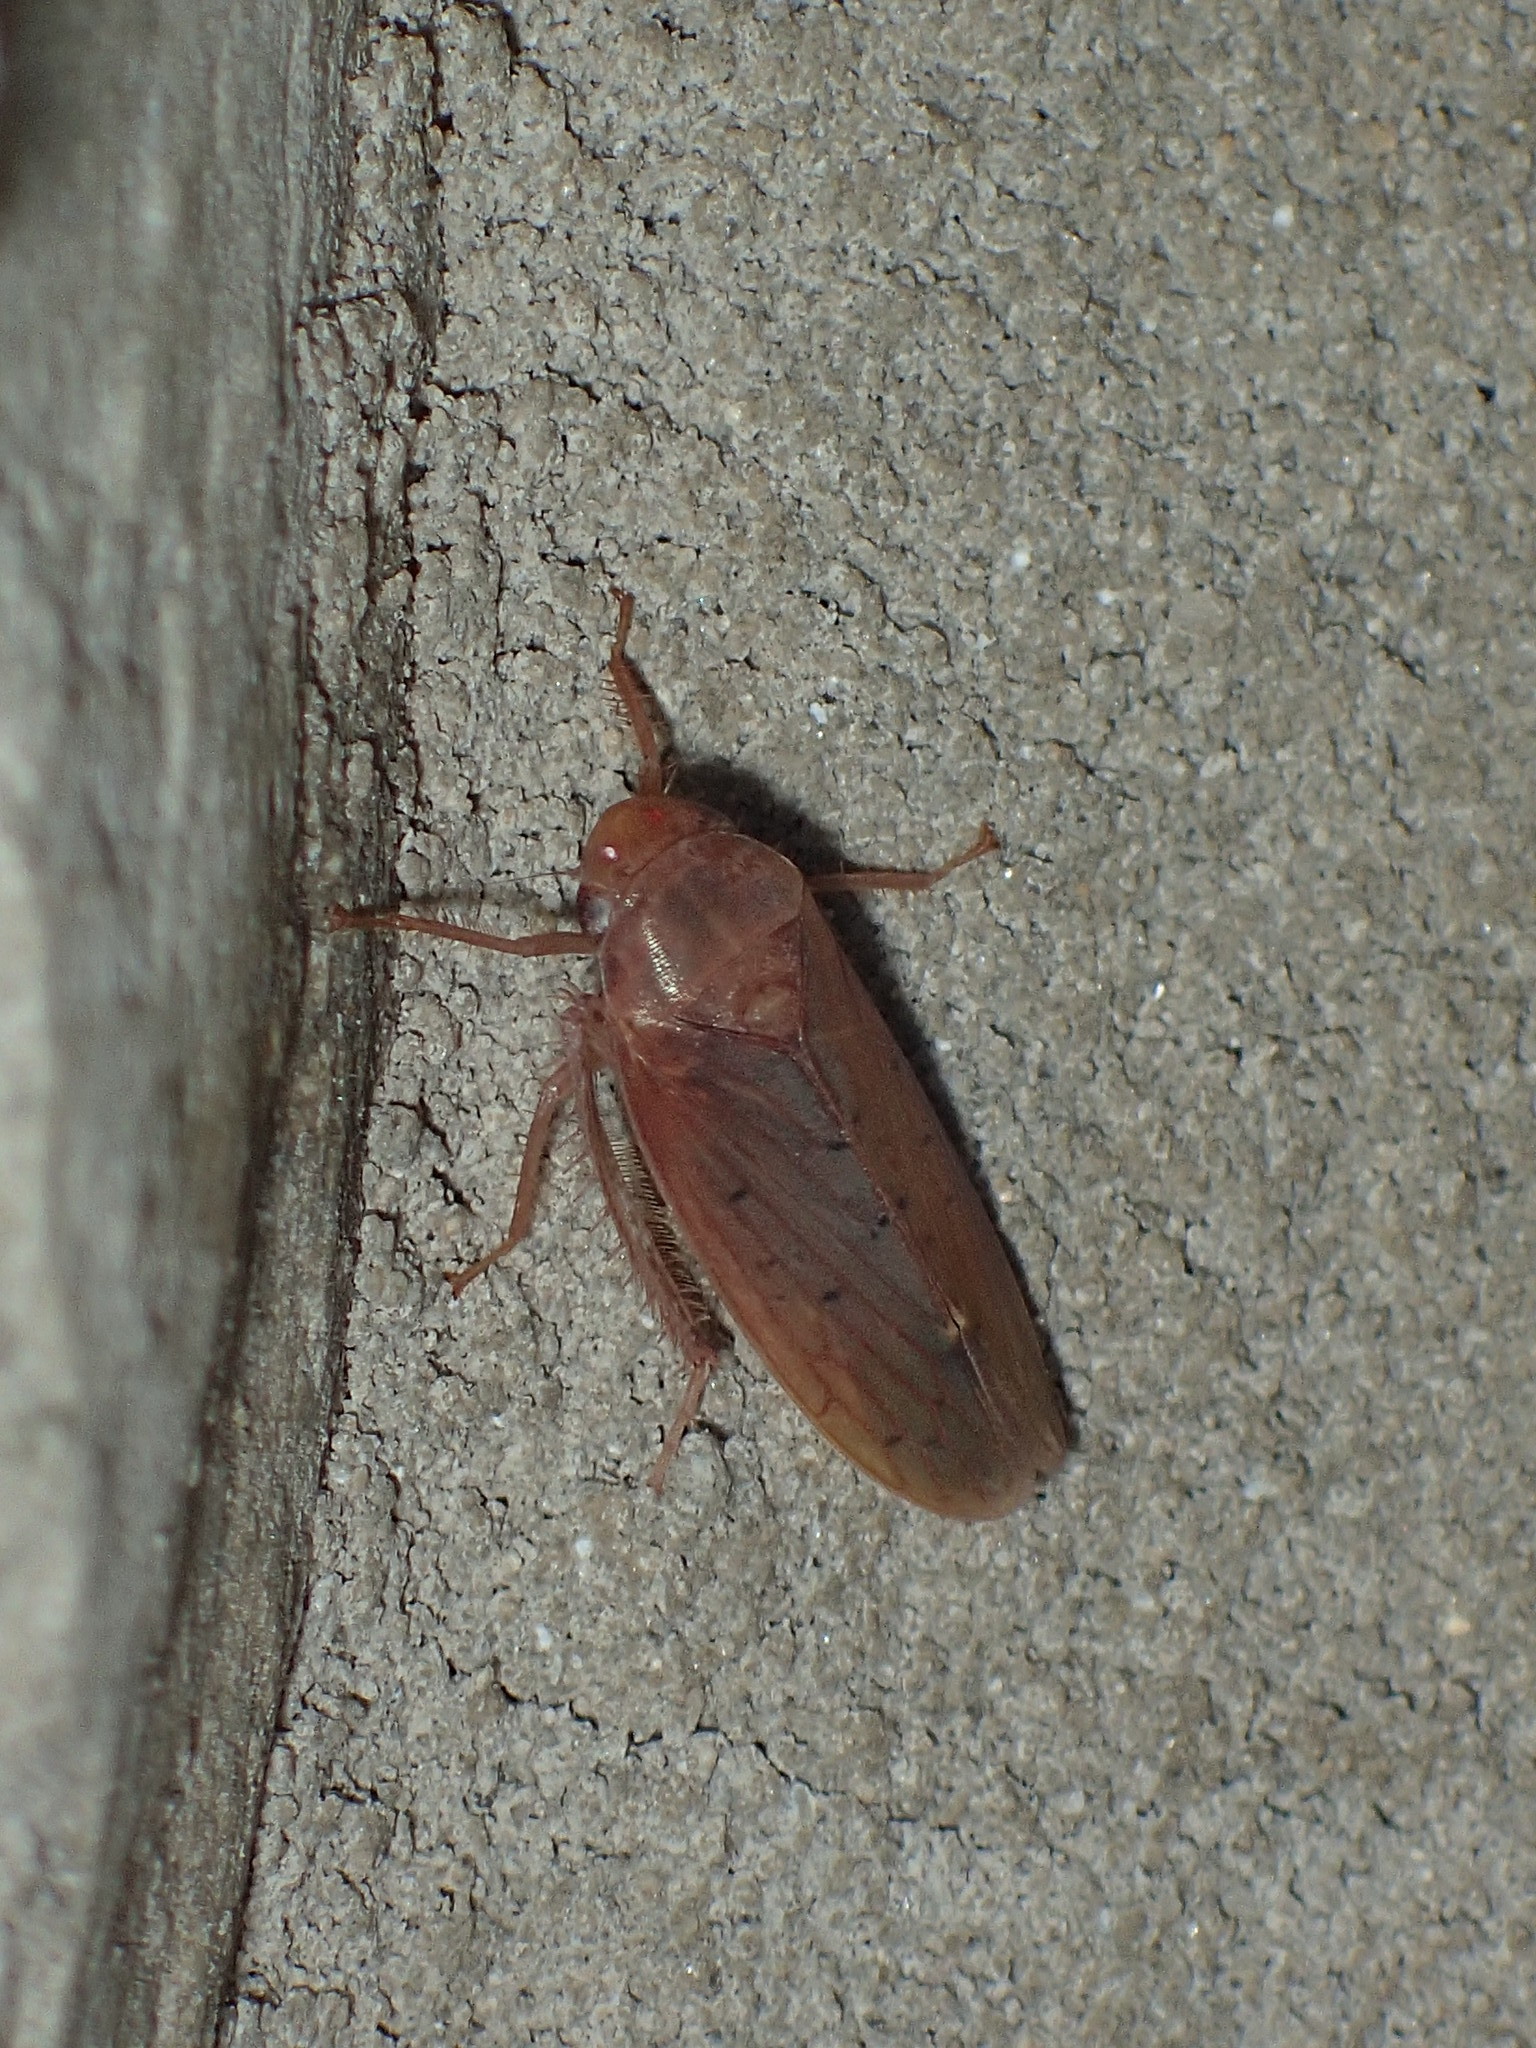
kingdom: Animalia
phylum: Arthropoda
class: Insecta
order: Hemiptera
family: Cicadellidae
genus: Ponana
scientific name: Ponana aenea
